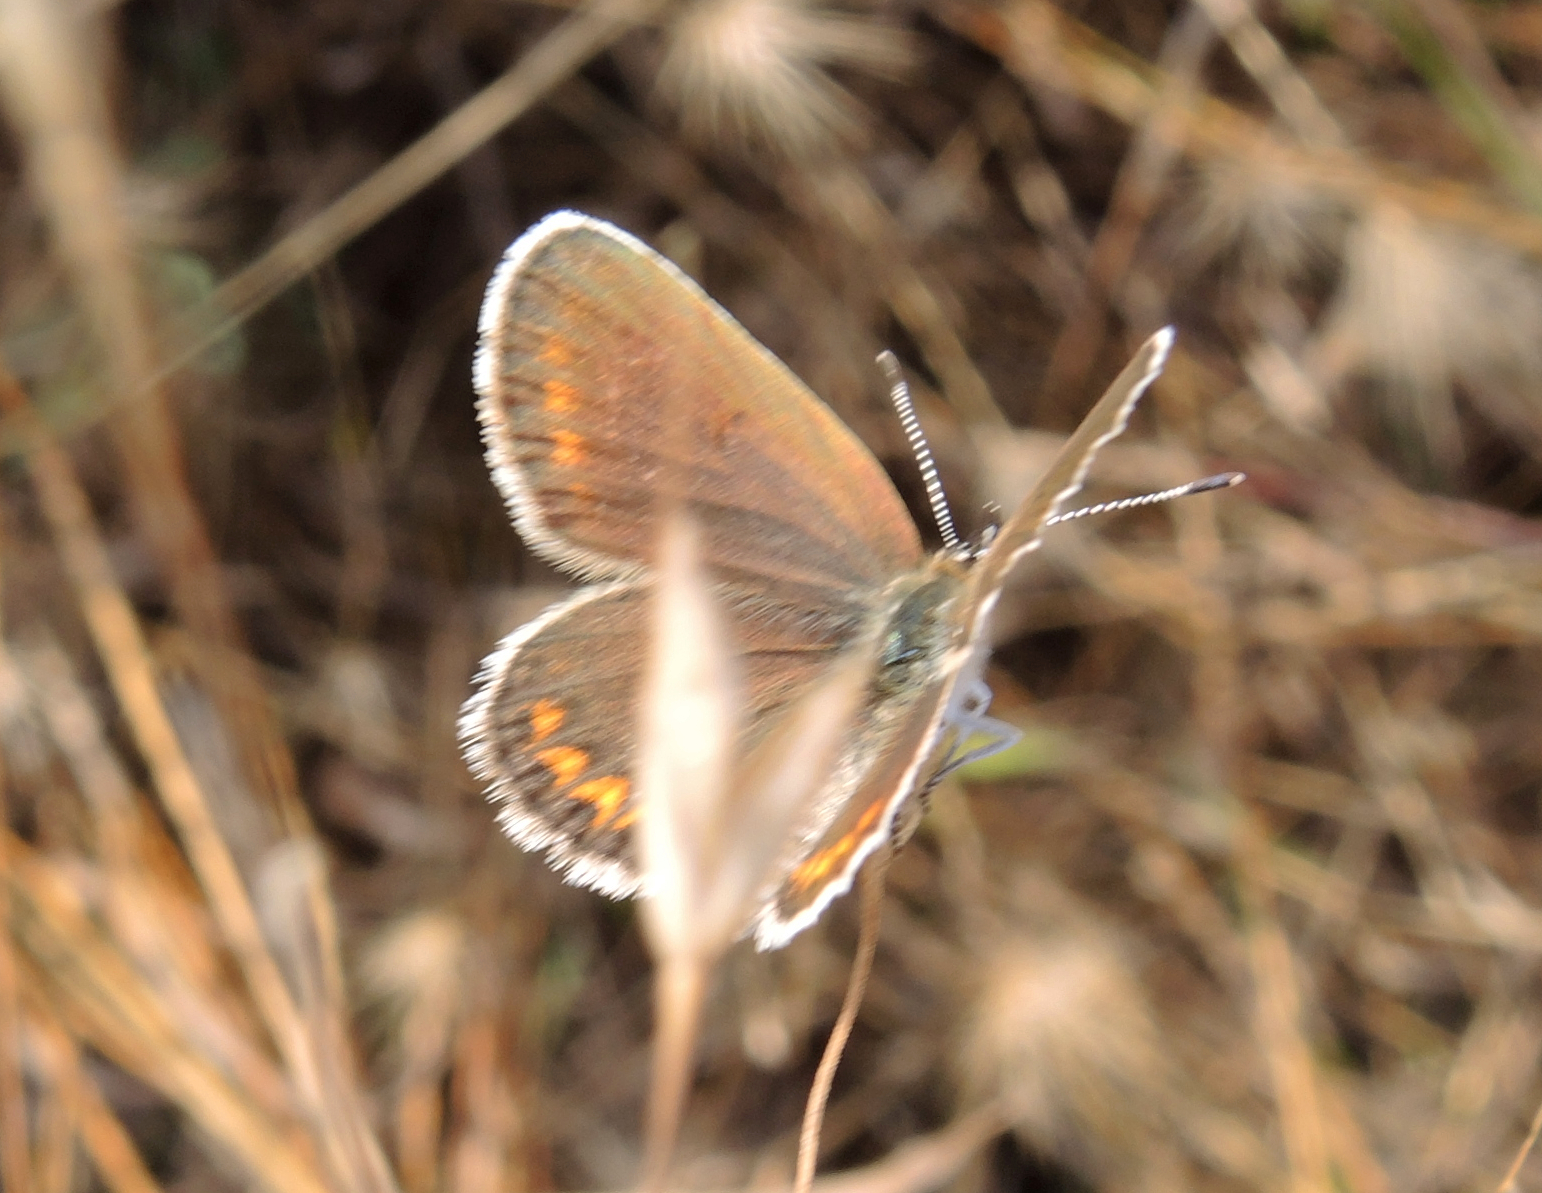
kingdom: Animalia
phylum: Arthropoda
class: Insecta
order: Lepidoptera
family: Lycaenidae
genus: Plebejus
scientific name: Plebejus argus
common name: Silver-studded blue
